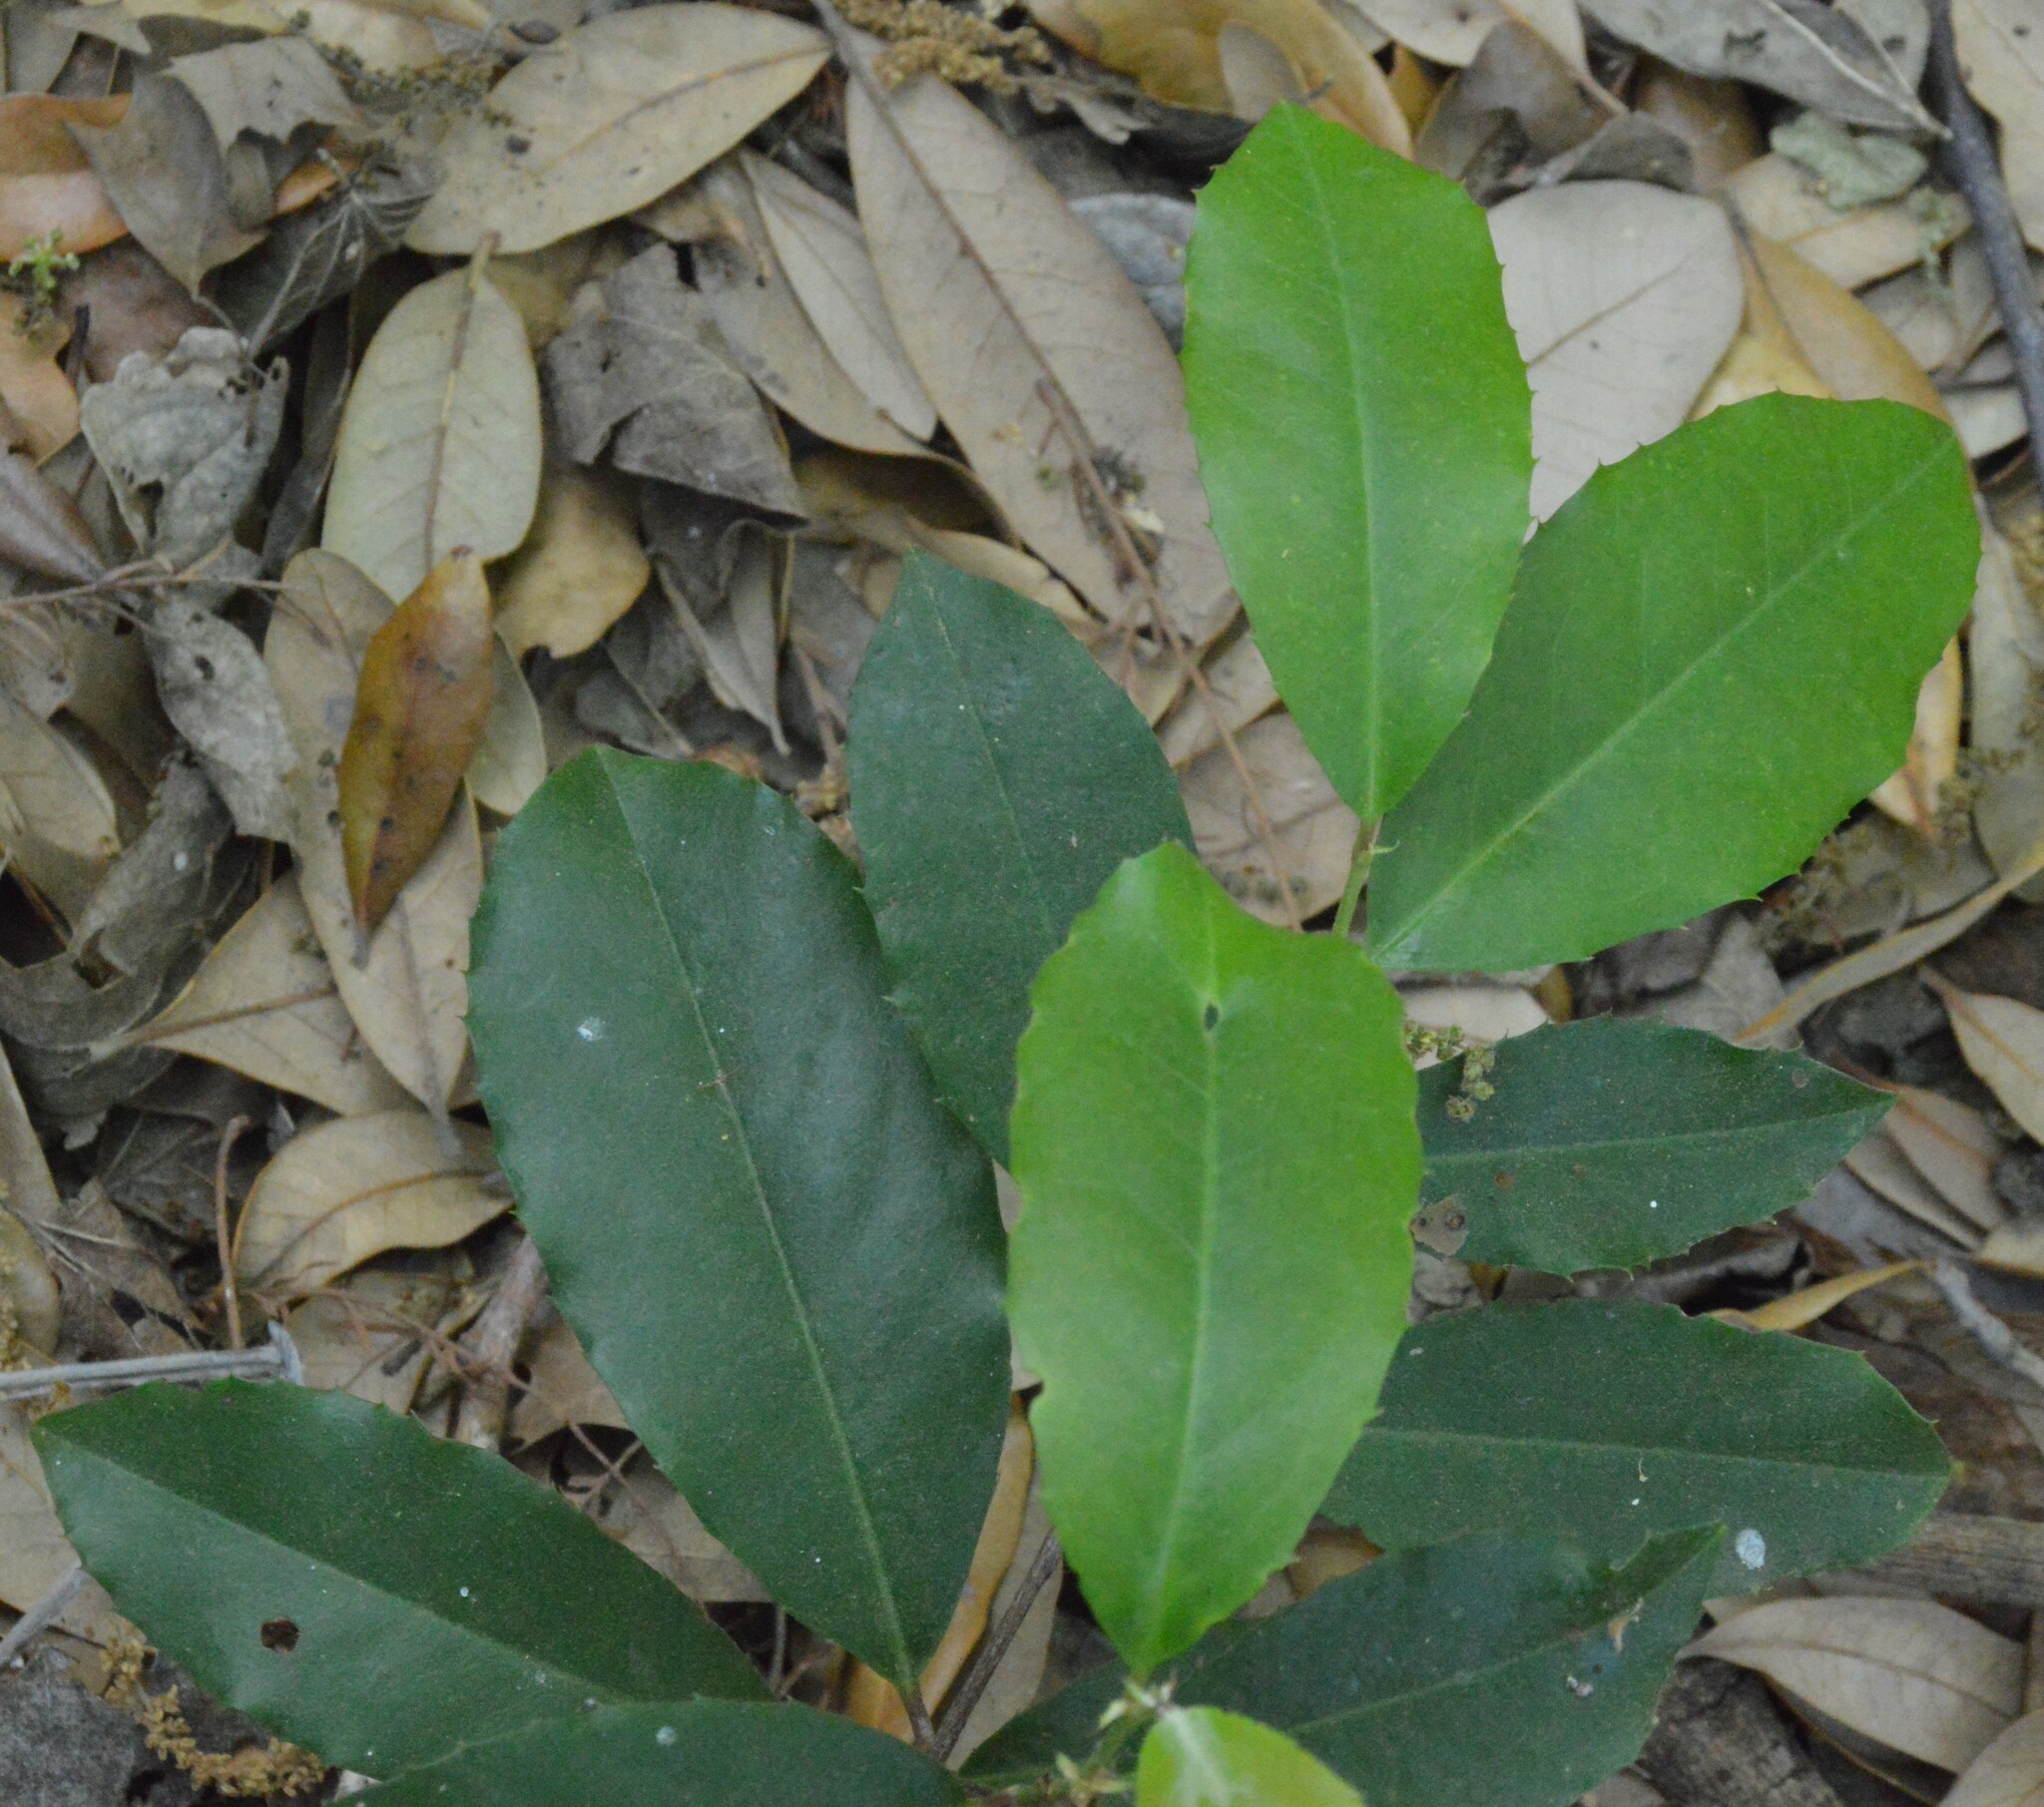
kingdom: Plantae
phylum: Tracheophyta
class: Magnoliopsida
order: Rosales
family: Rosaceae
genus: Prunus
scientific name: Prunus caroliniana
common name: Carolina laurel cherry
